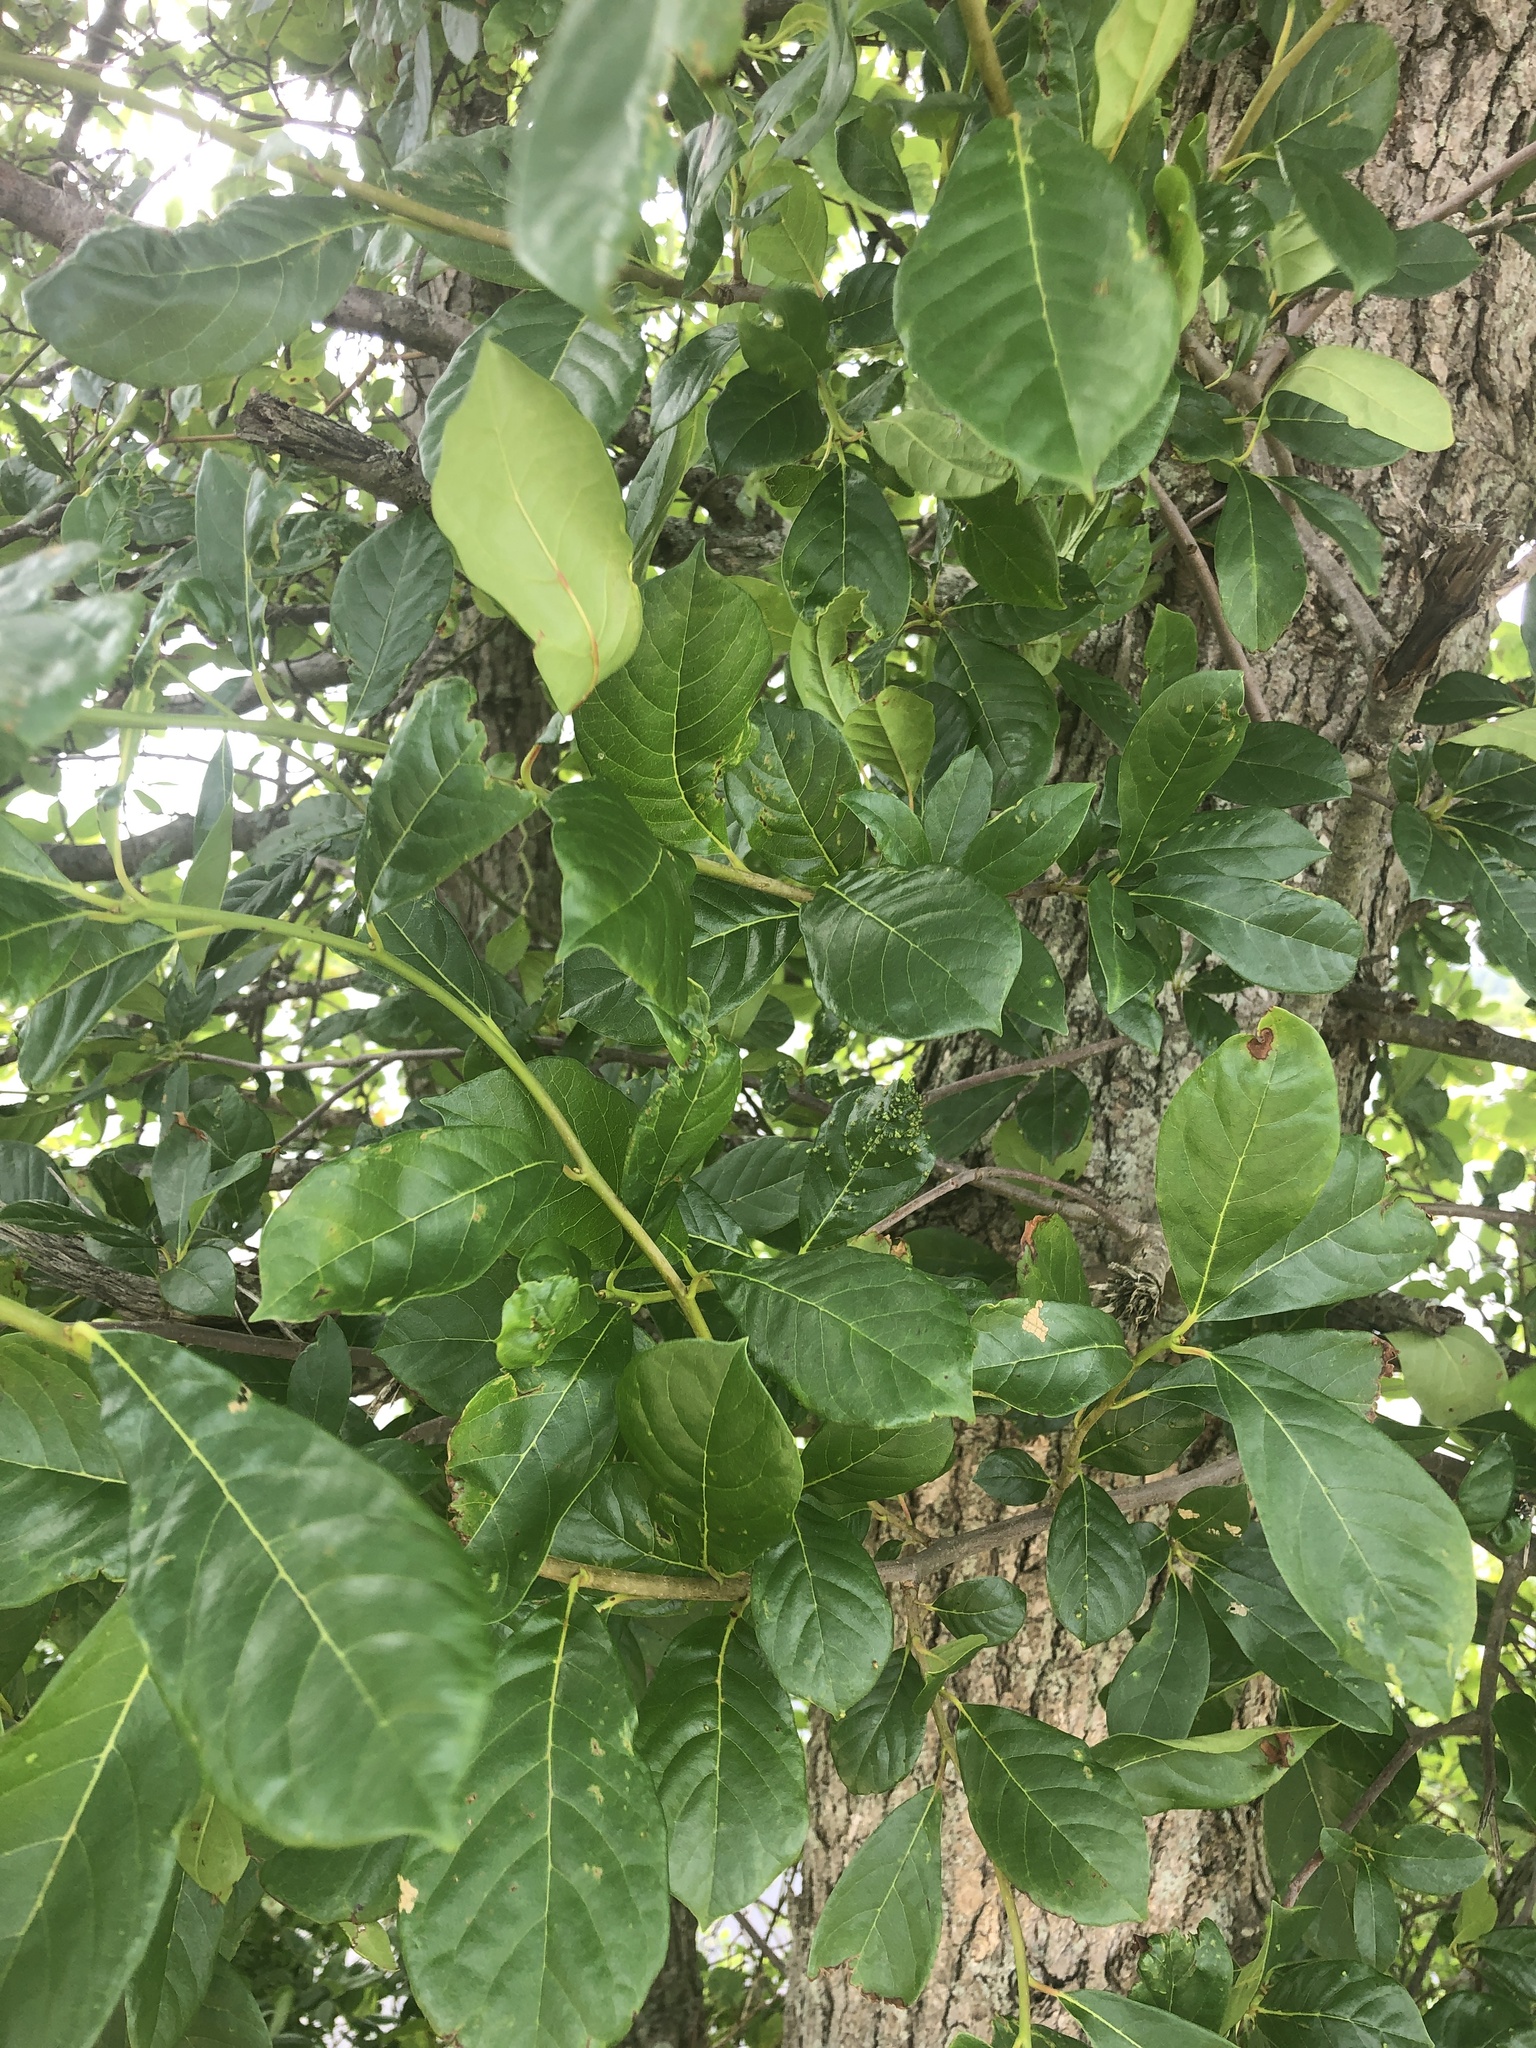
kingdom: Plantae
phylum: Tracheophyta
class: Magnoliopsida
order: Cornales
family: Nyssaceae
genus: Nyssa
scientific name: Nyssa sylvatica
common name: Black tupelo
